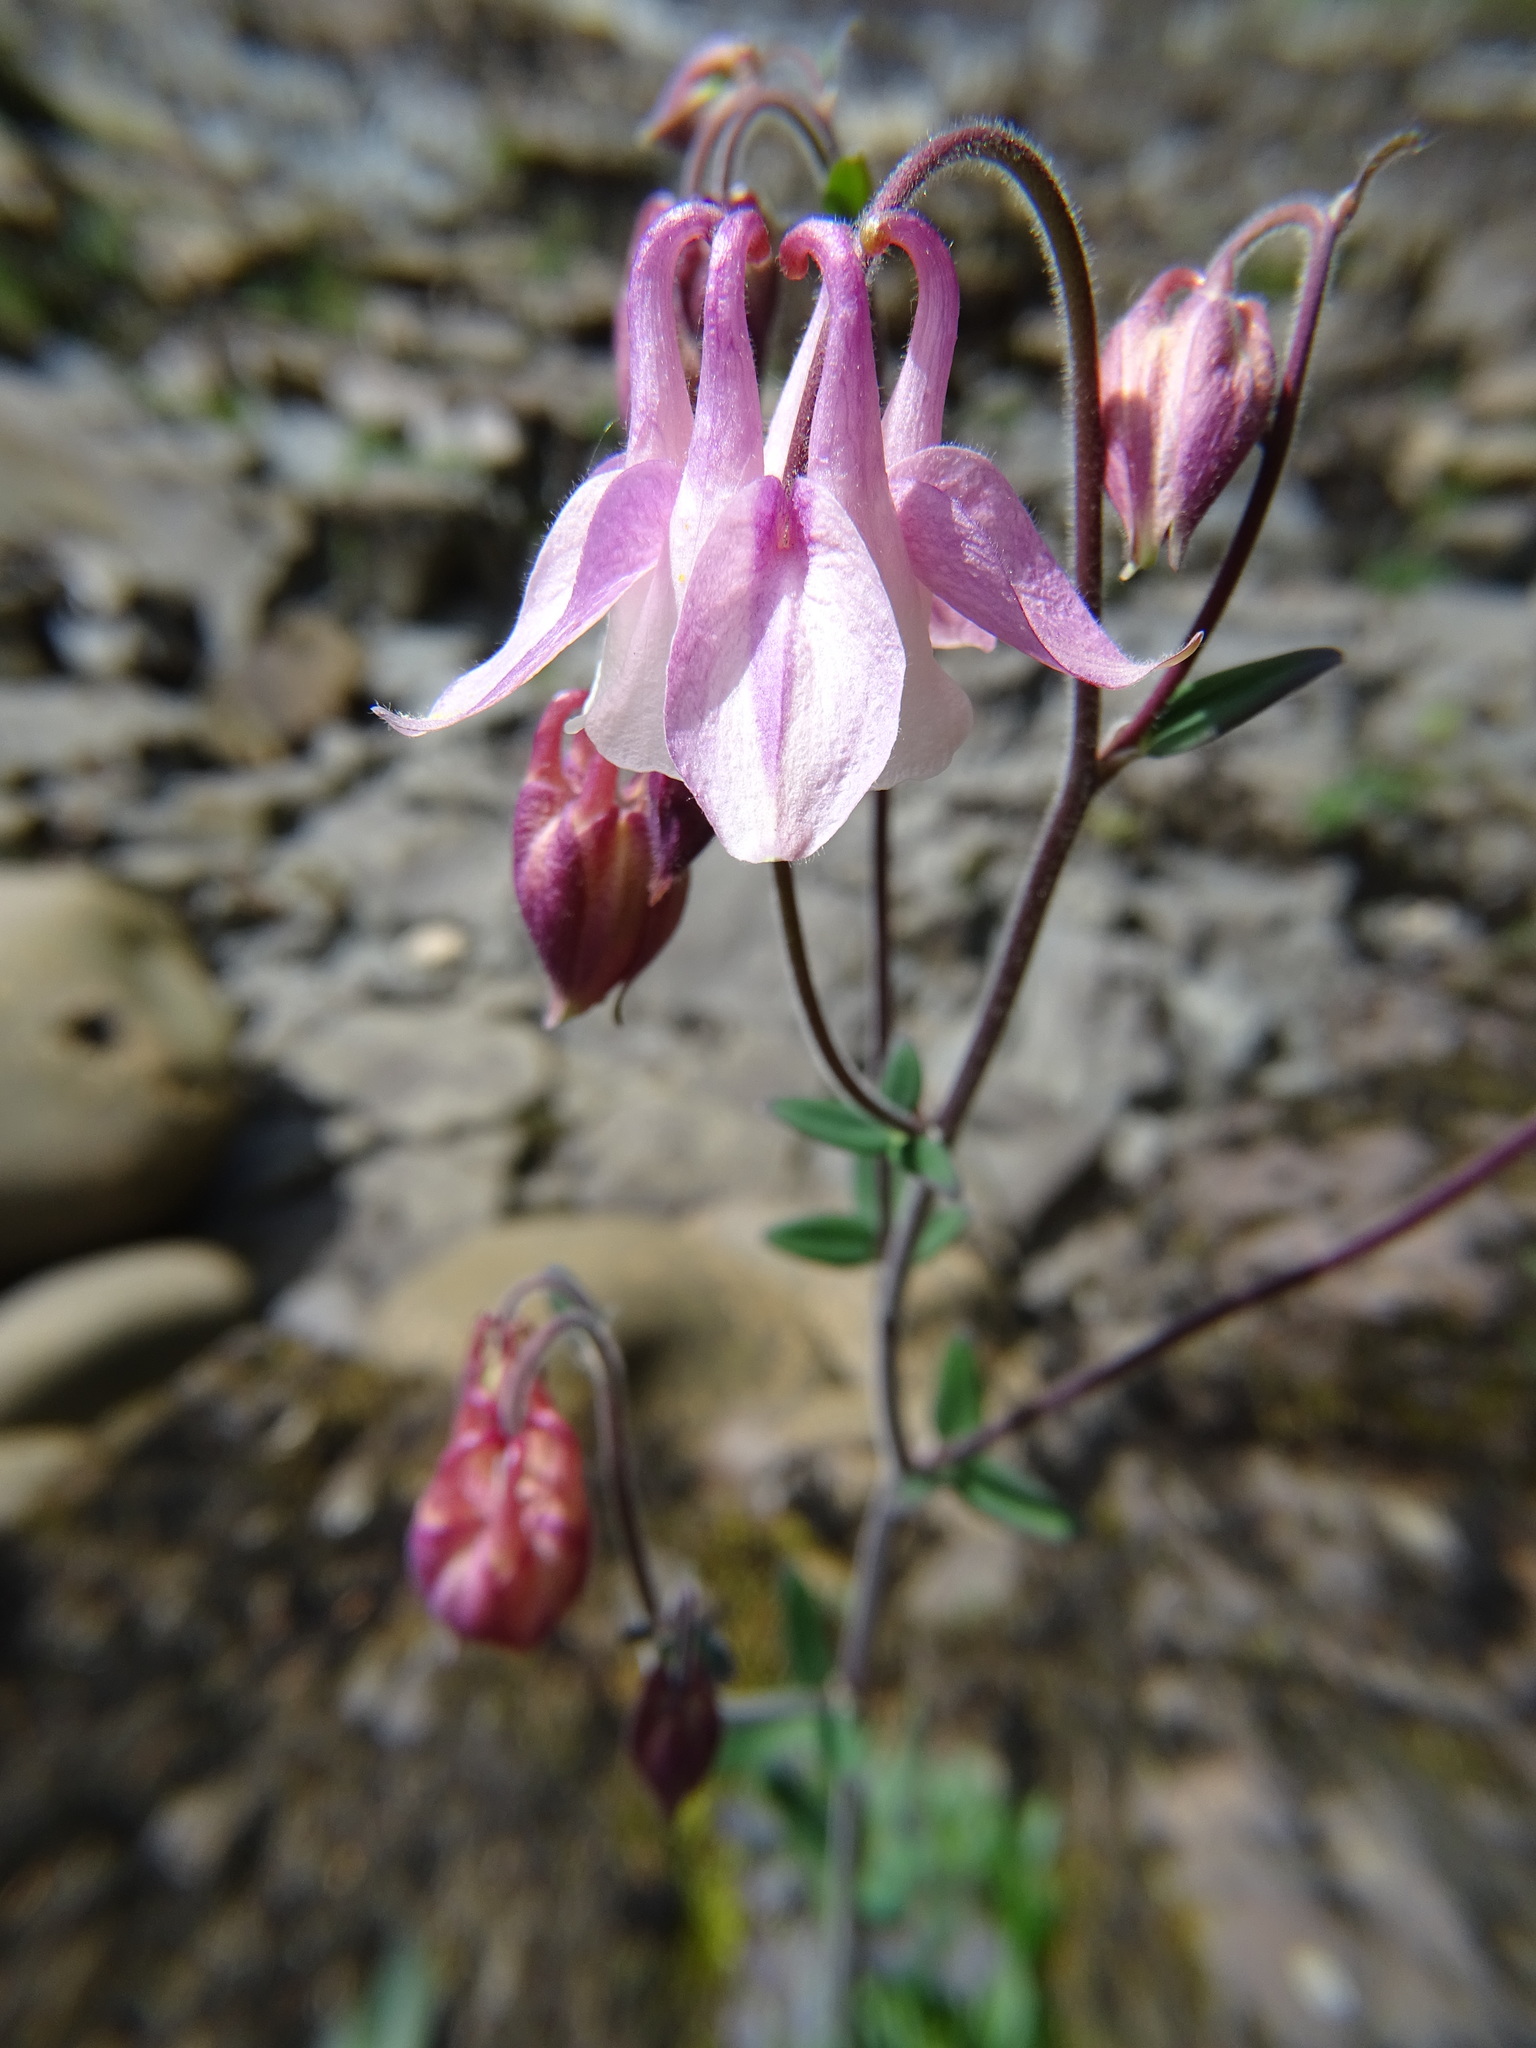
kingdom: Plantae
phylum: Tracheophyta
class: Magnoliopsida
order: Ranunculales
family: Ranunculaceae
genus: Aquilegia
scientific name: Aquilegia vulgaris
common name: Columbine
